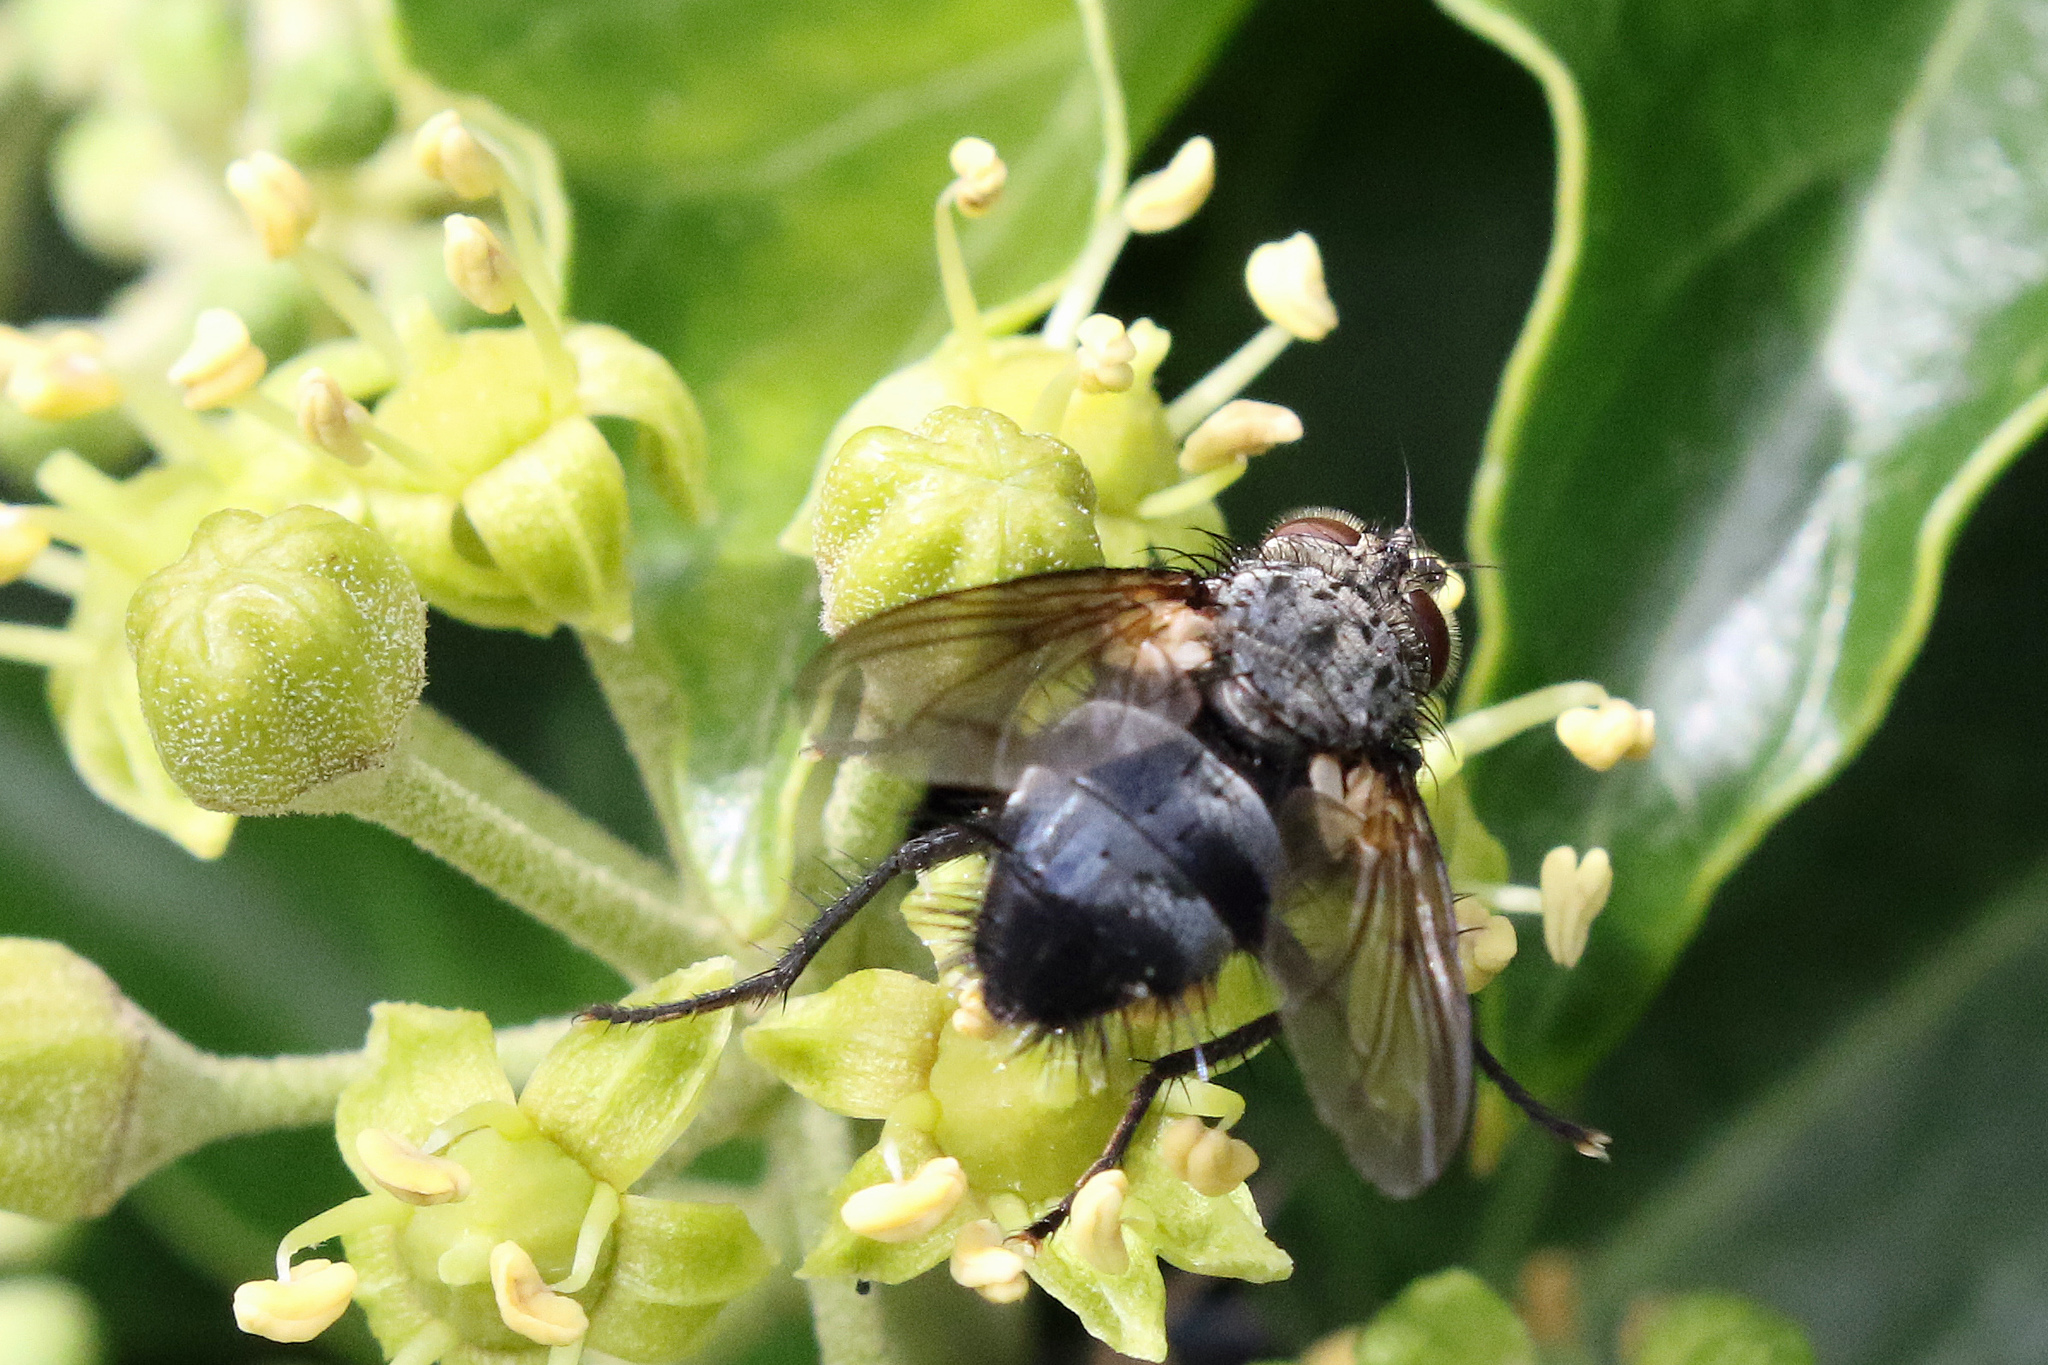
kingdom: Animalia
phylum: Arthropoda
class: Insecta
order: Diptera
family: Tachinidae
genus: Eurithia
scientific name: Eurithia anthophila
